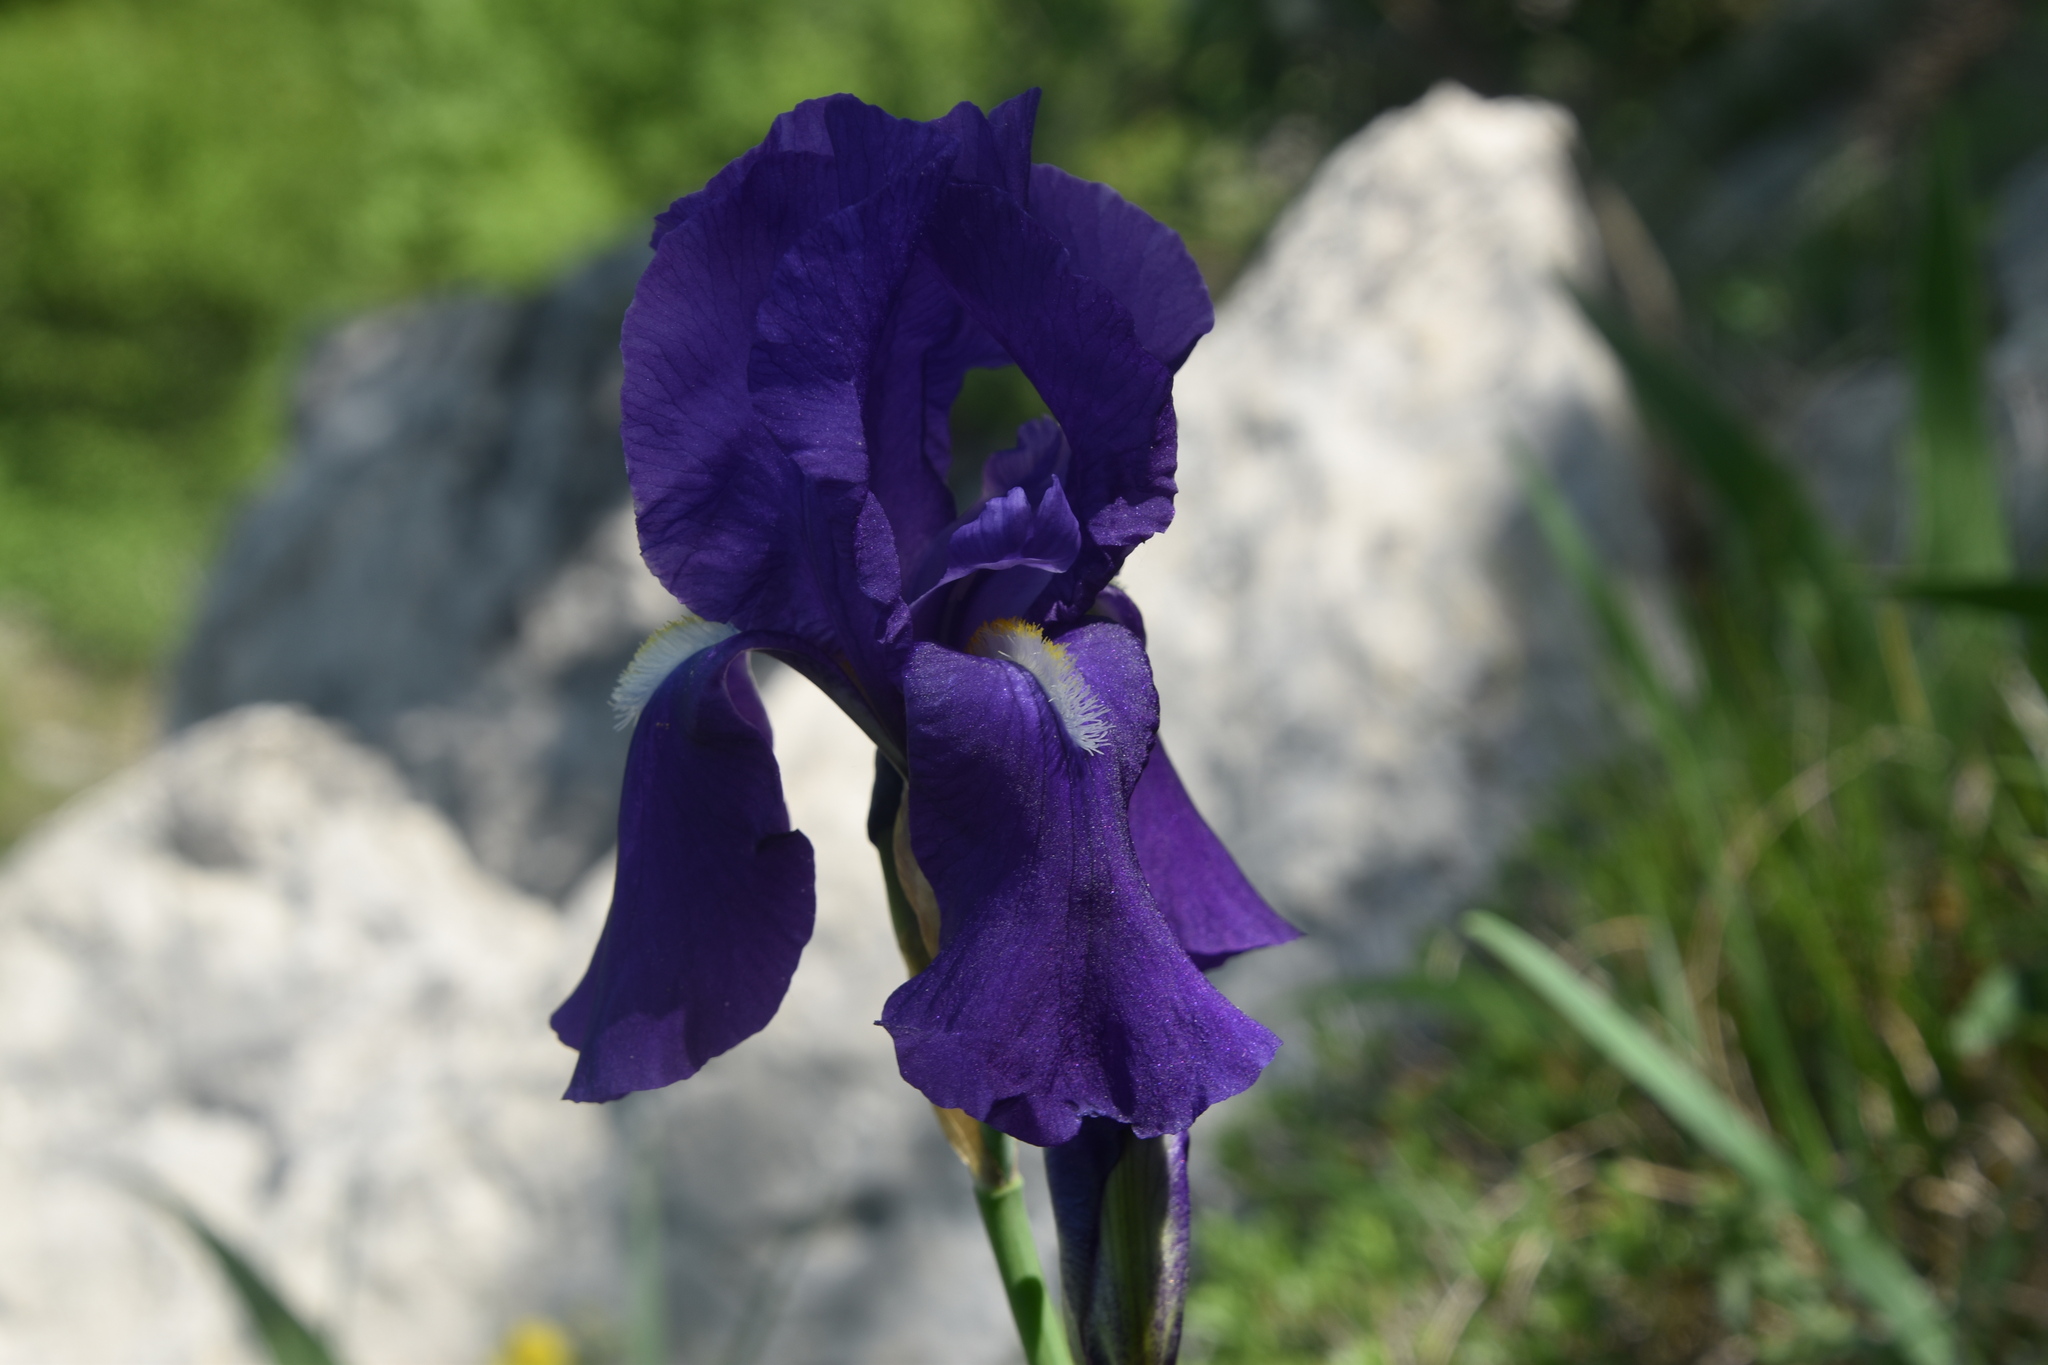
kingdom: Plantae
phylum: Tracheophyta
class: Liliopsida
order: Asparagales
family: Iridaceae
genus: Iris
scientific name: Iris pallida
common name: Sweet iris
